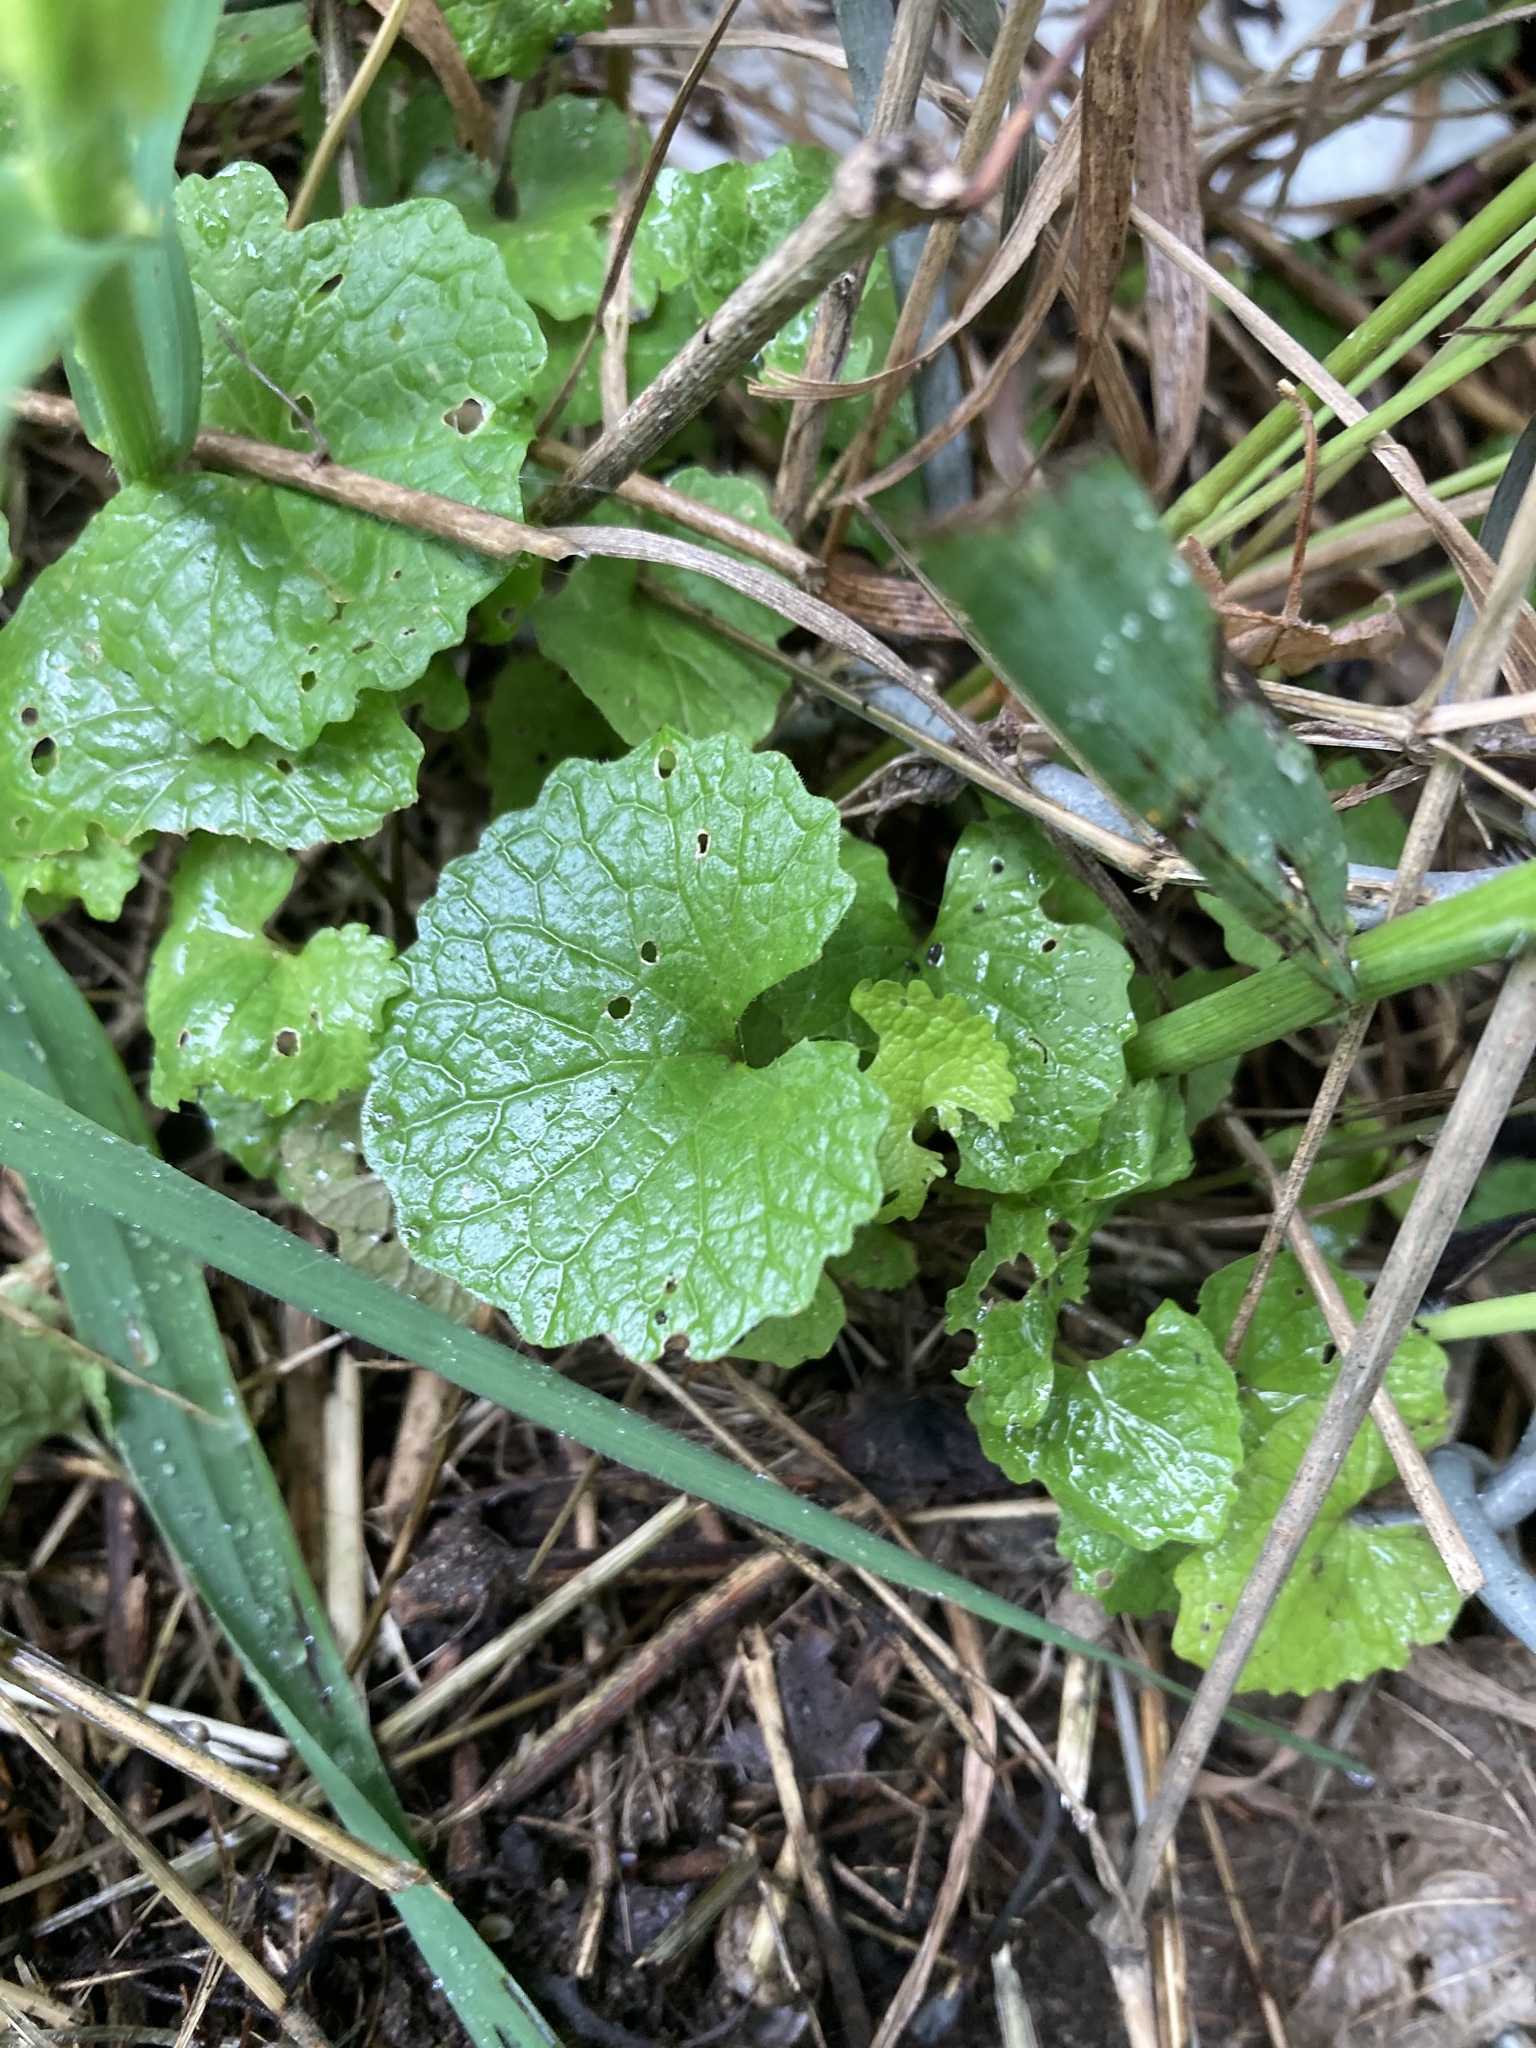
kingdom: Plantae
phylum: Tracheophyta
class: Magnoliopsida
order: Brassicales
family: Brassicaceae
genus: Alliaria
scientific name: Alliaria petiolata
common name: Garlic mustard
